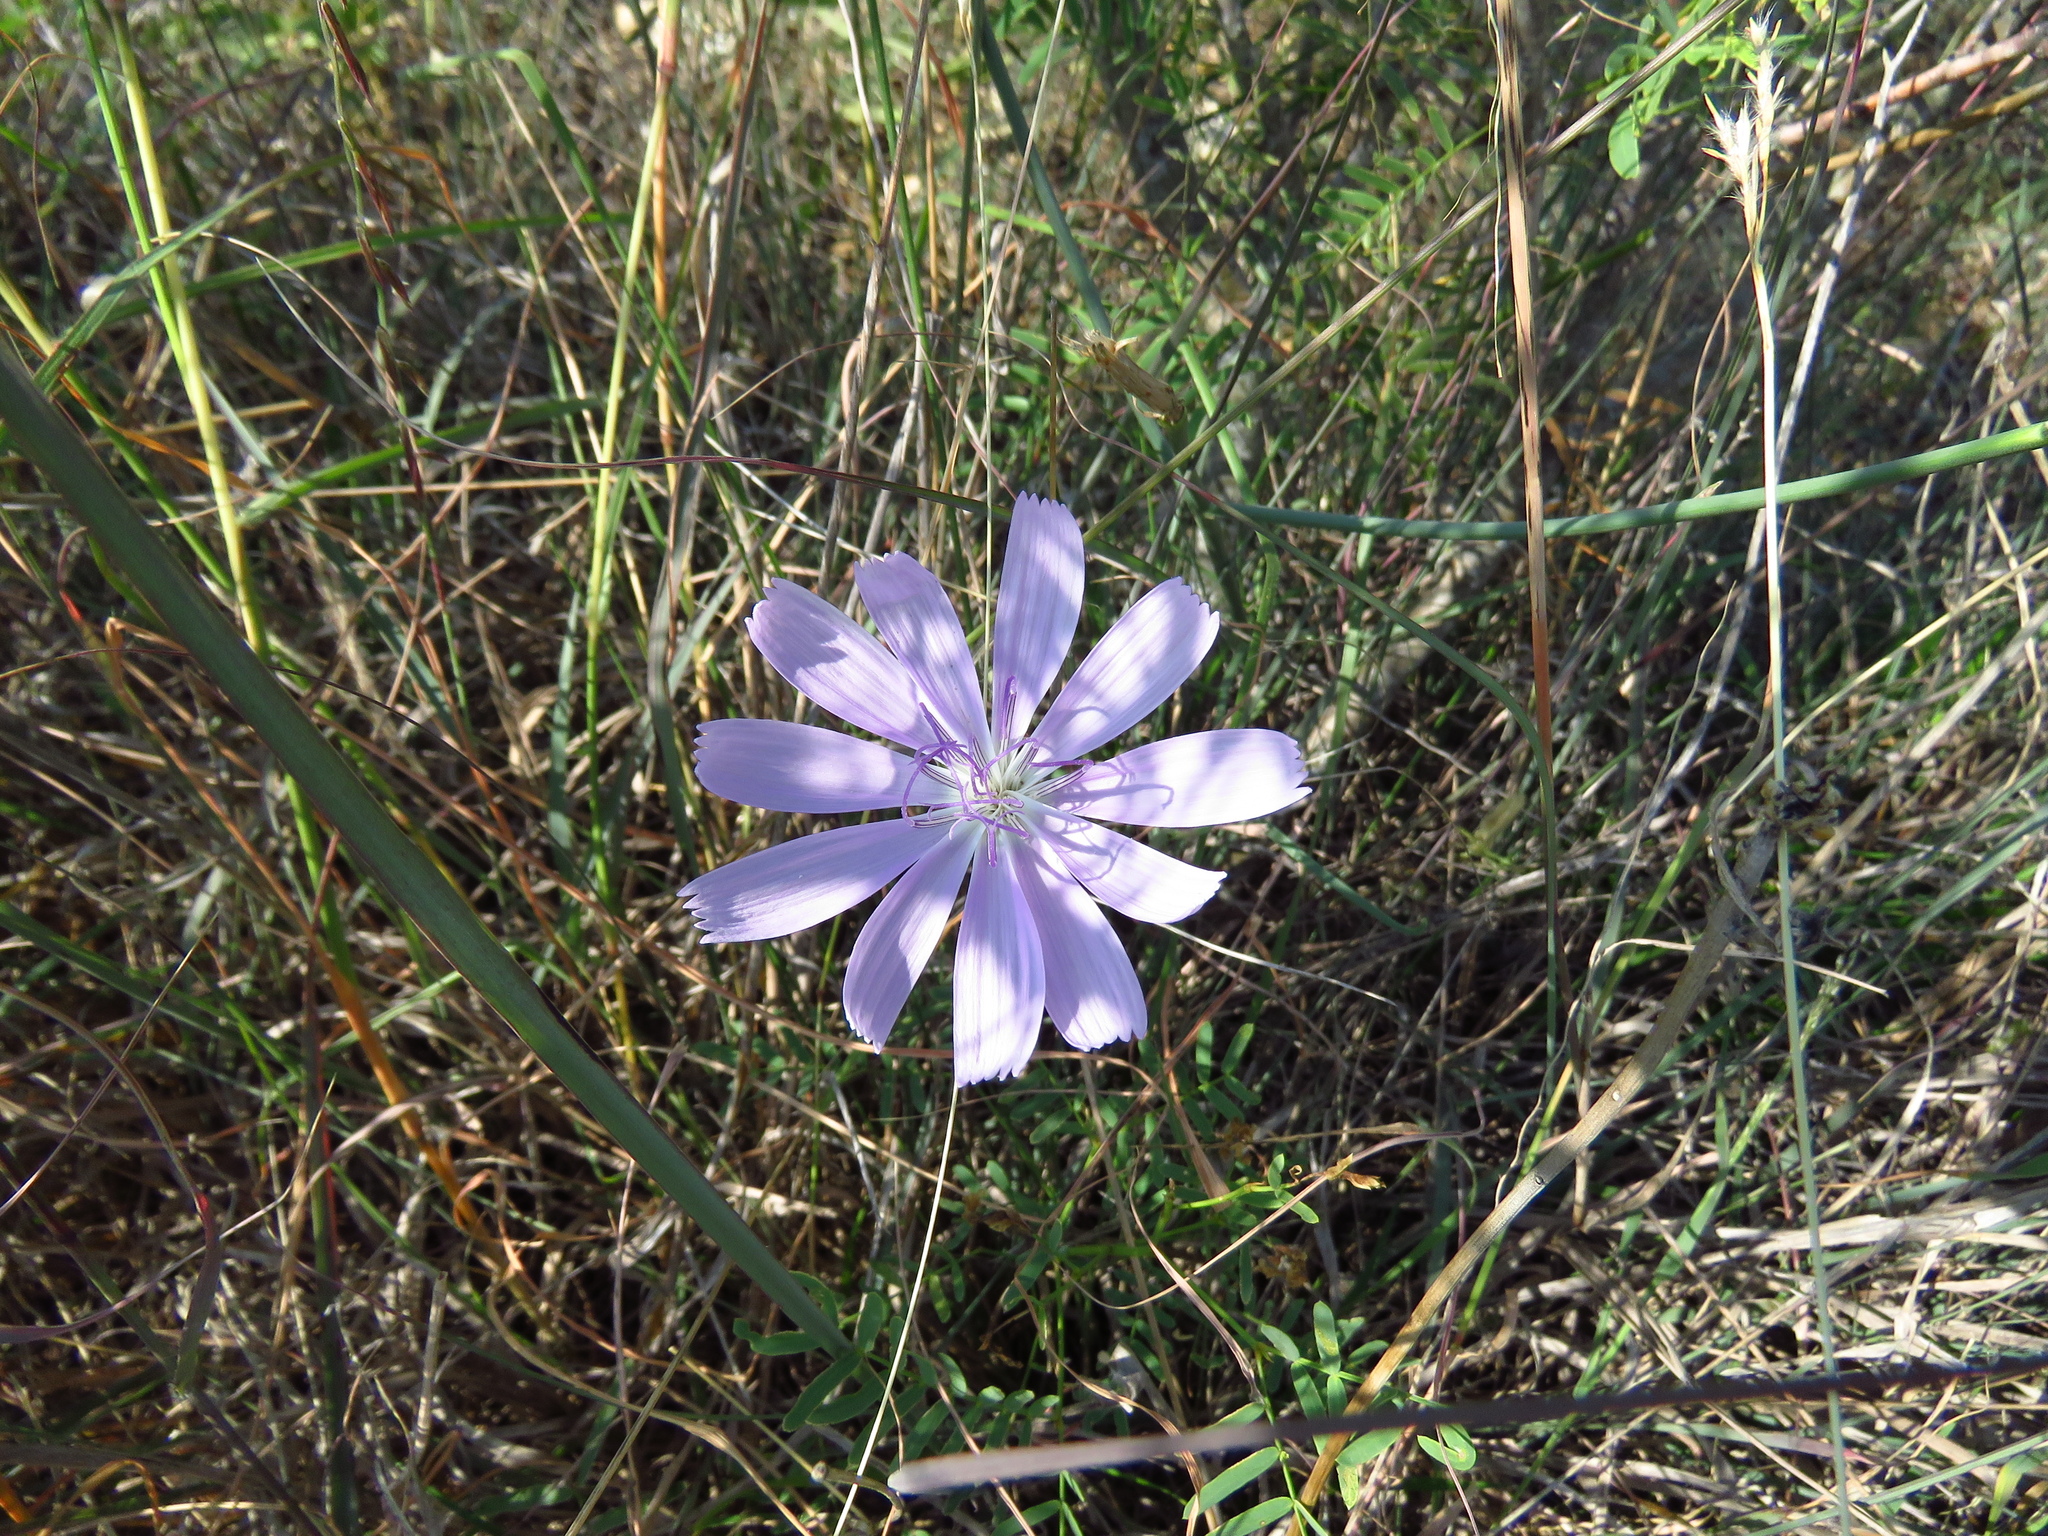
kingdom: Plantae
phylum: Tracheophyta
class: Magnoliopsida
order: Asterales
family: Asteraceae
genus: Lygodesmia
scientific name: Lygodesmia texana
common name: Texas skeleton-plant
